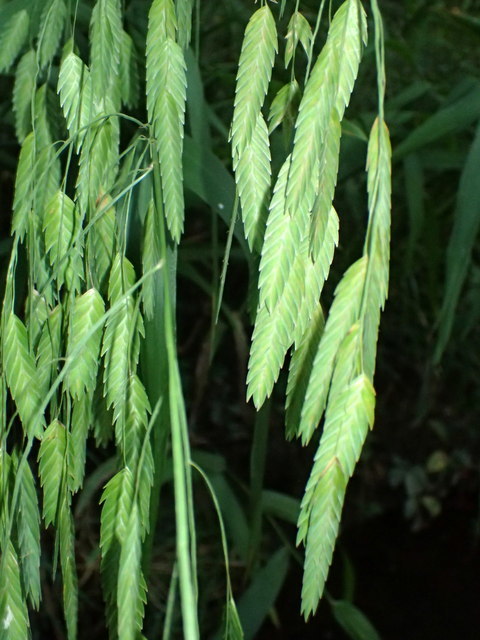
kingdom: Plantae
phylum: Tracheophyta
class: Liliopsida
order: Poales
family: Poaceae
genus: Chasmanthium
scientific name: Chasmanthium latifolium
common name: Broad-leaved chasmanthium
